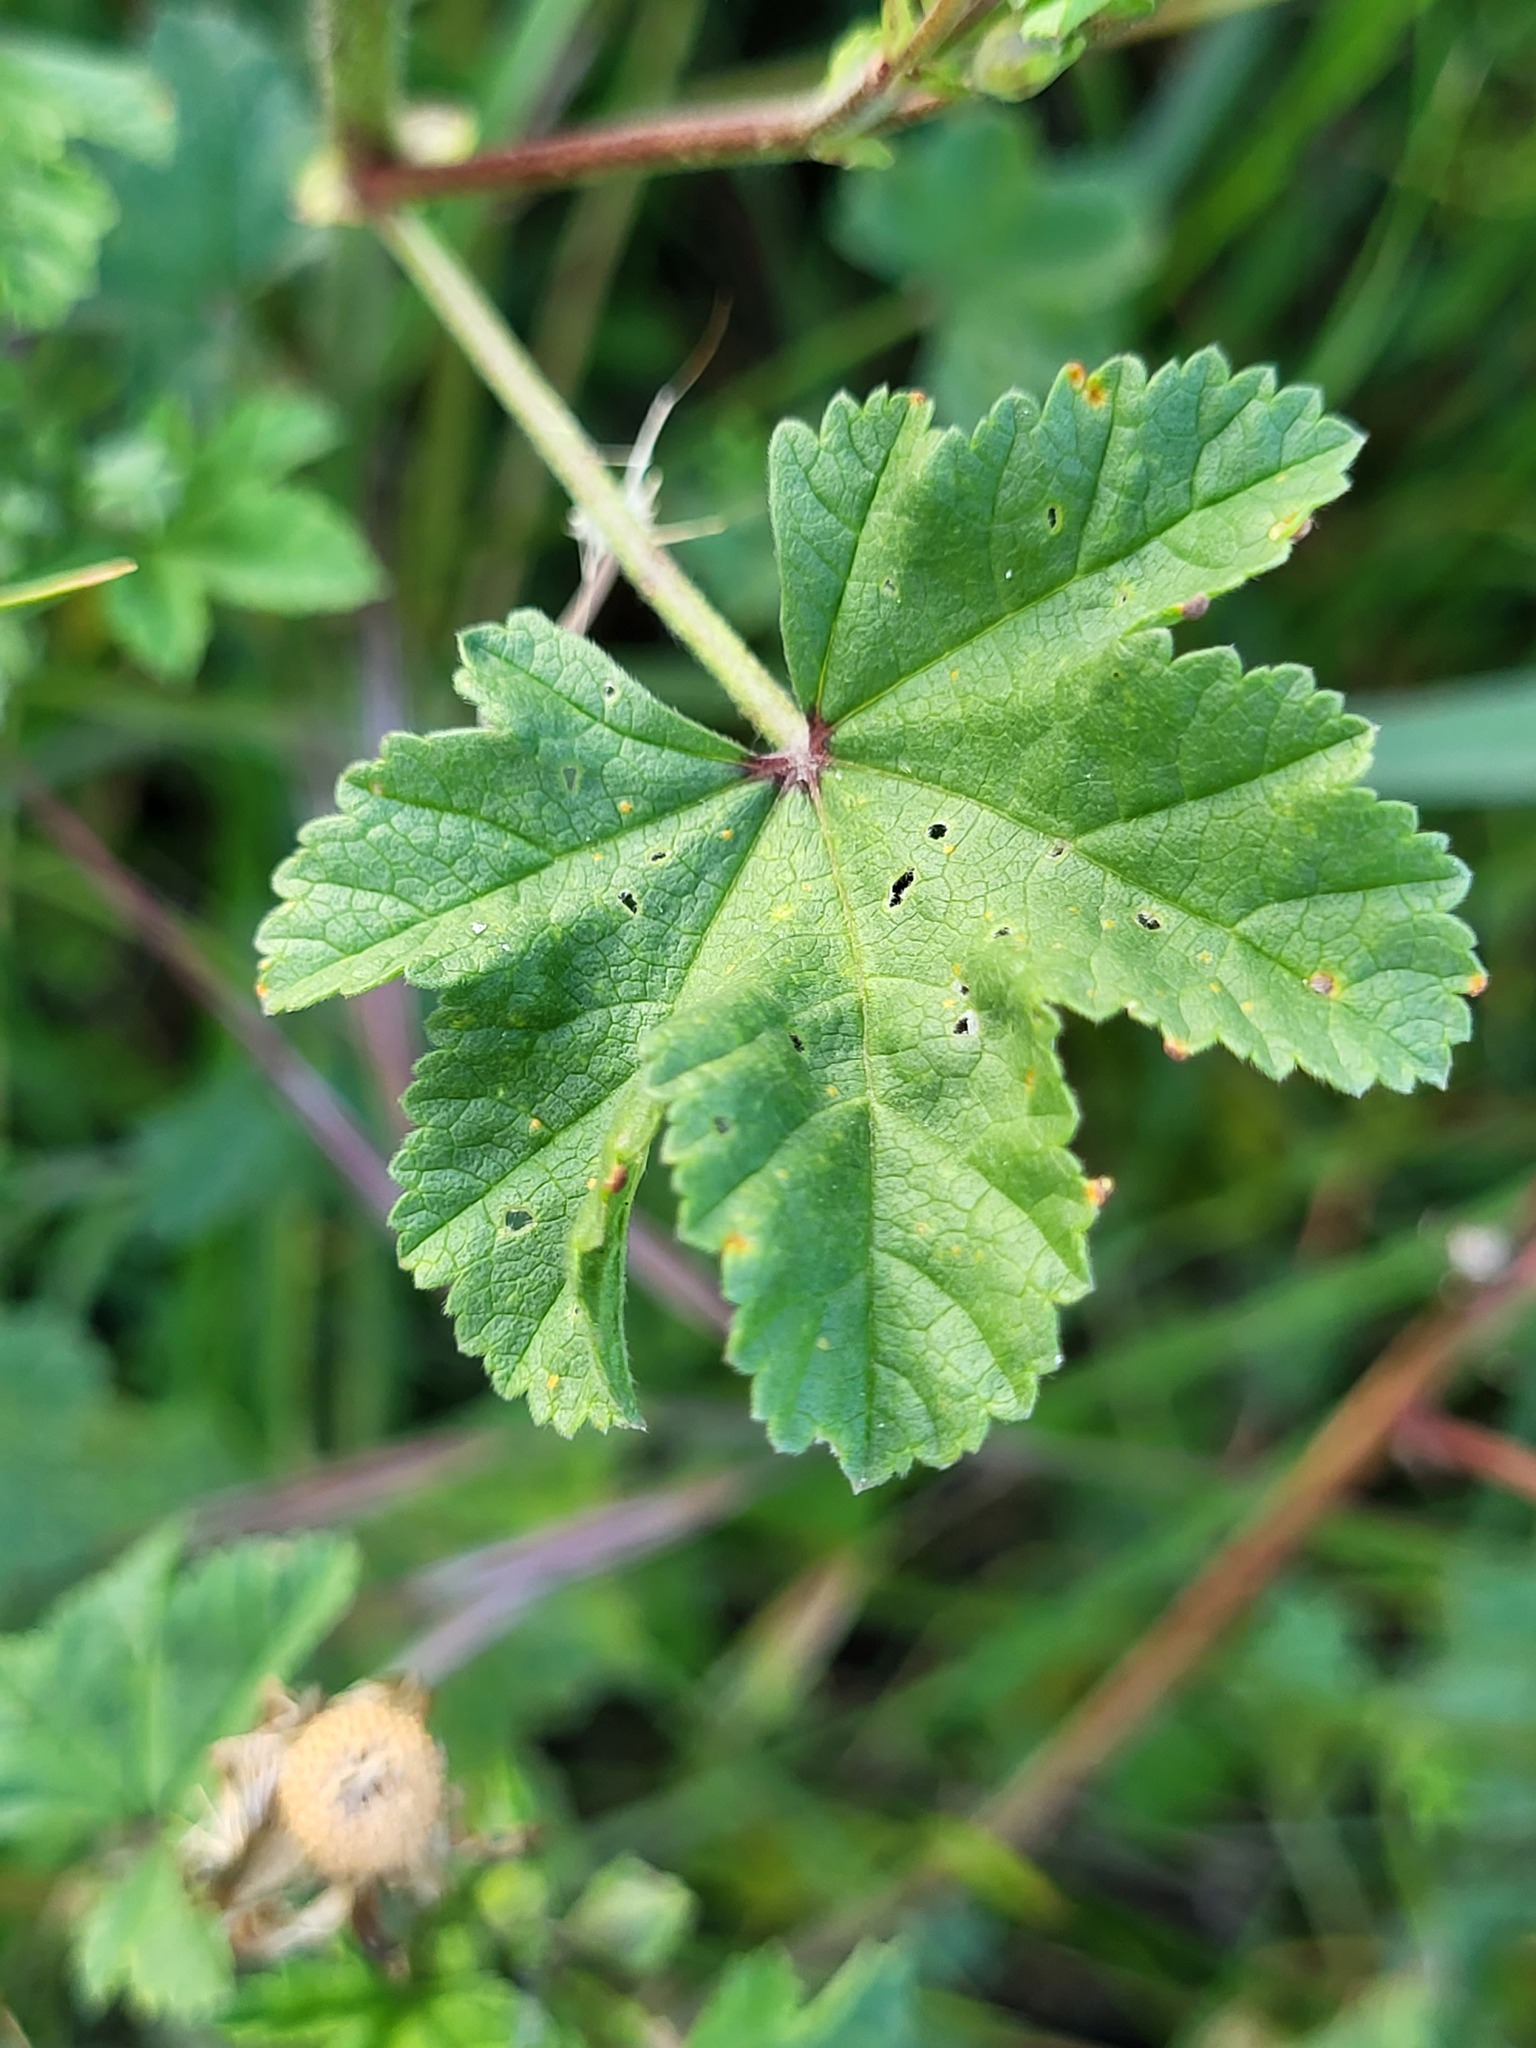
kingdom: Plantae
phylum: Tracheophyta
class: Magnoliopsida
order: Malvales
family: Malvaceae
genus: Malva
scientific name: Malva sylvestris
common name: Common mallow
